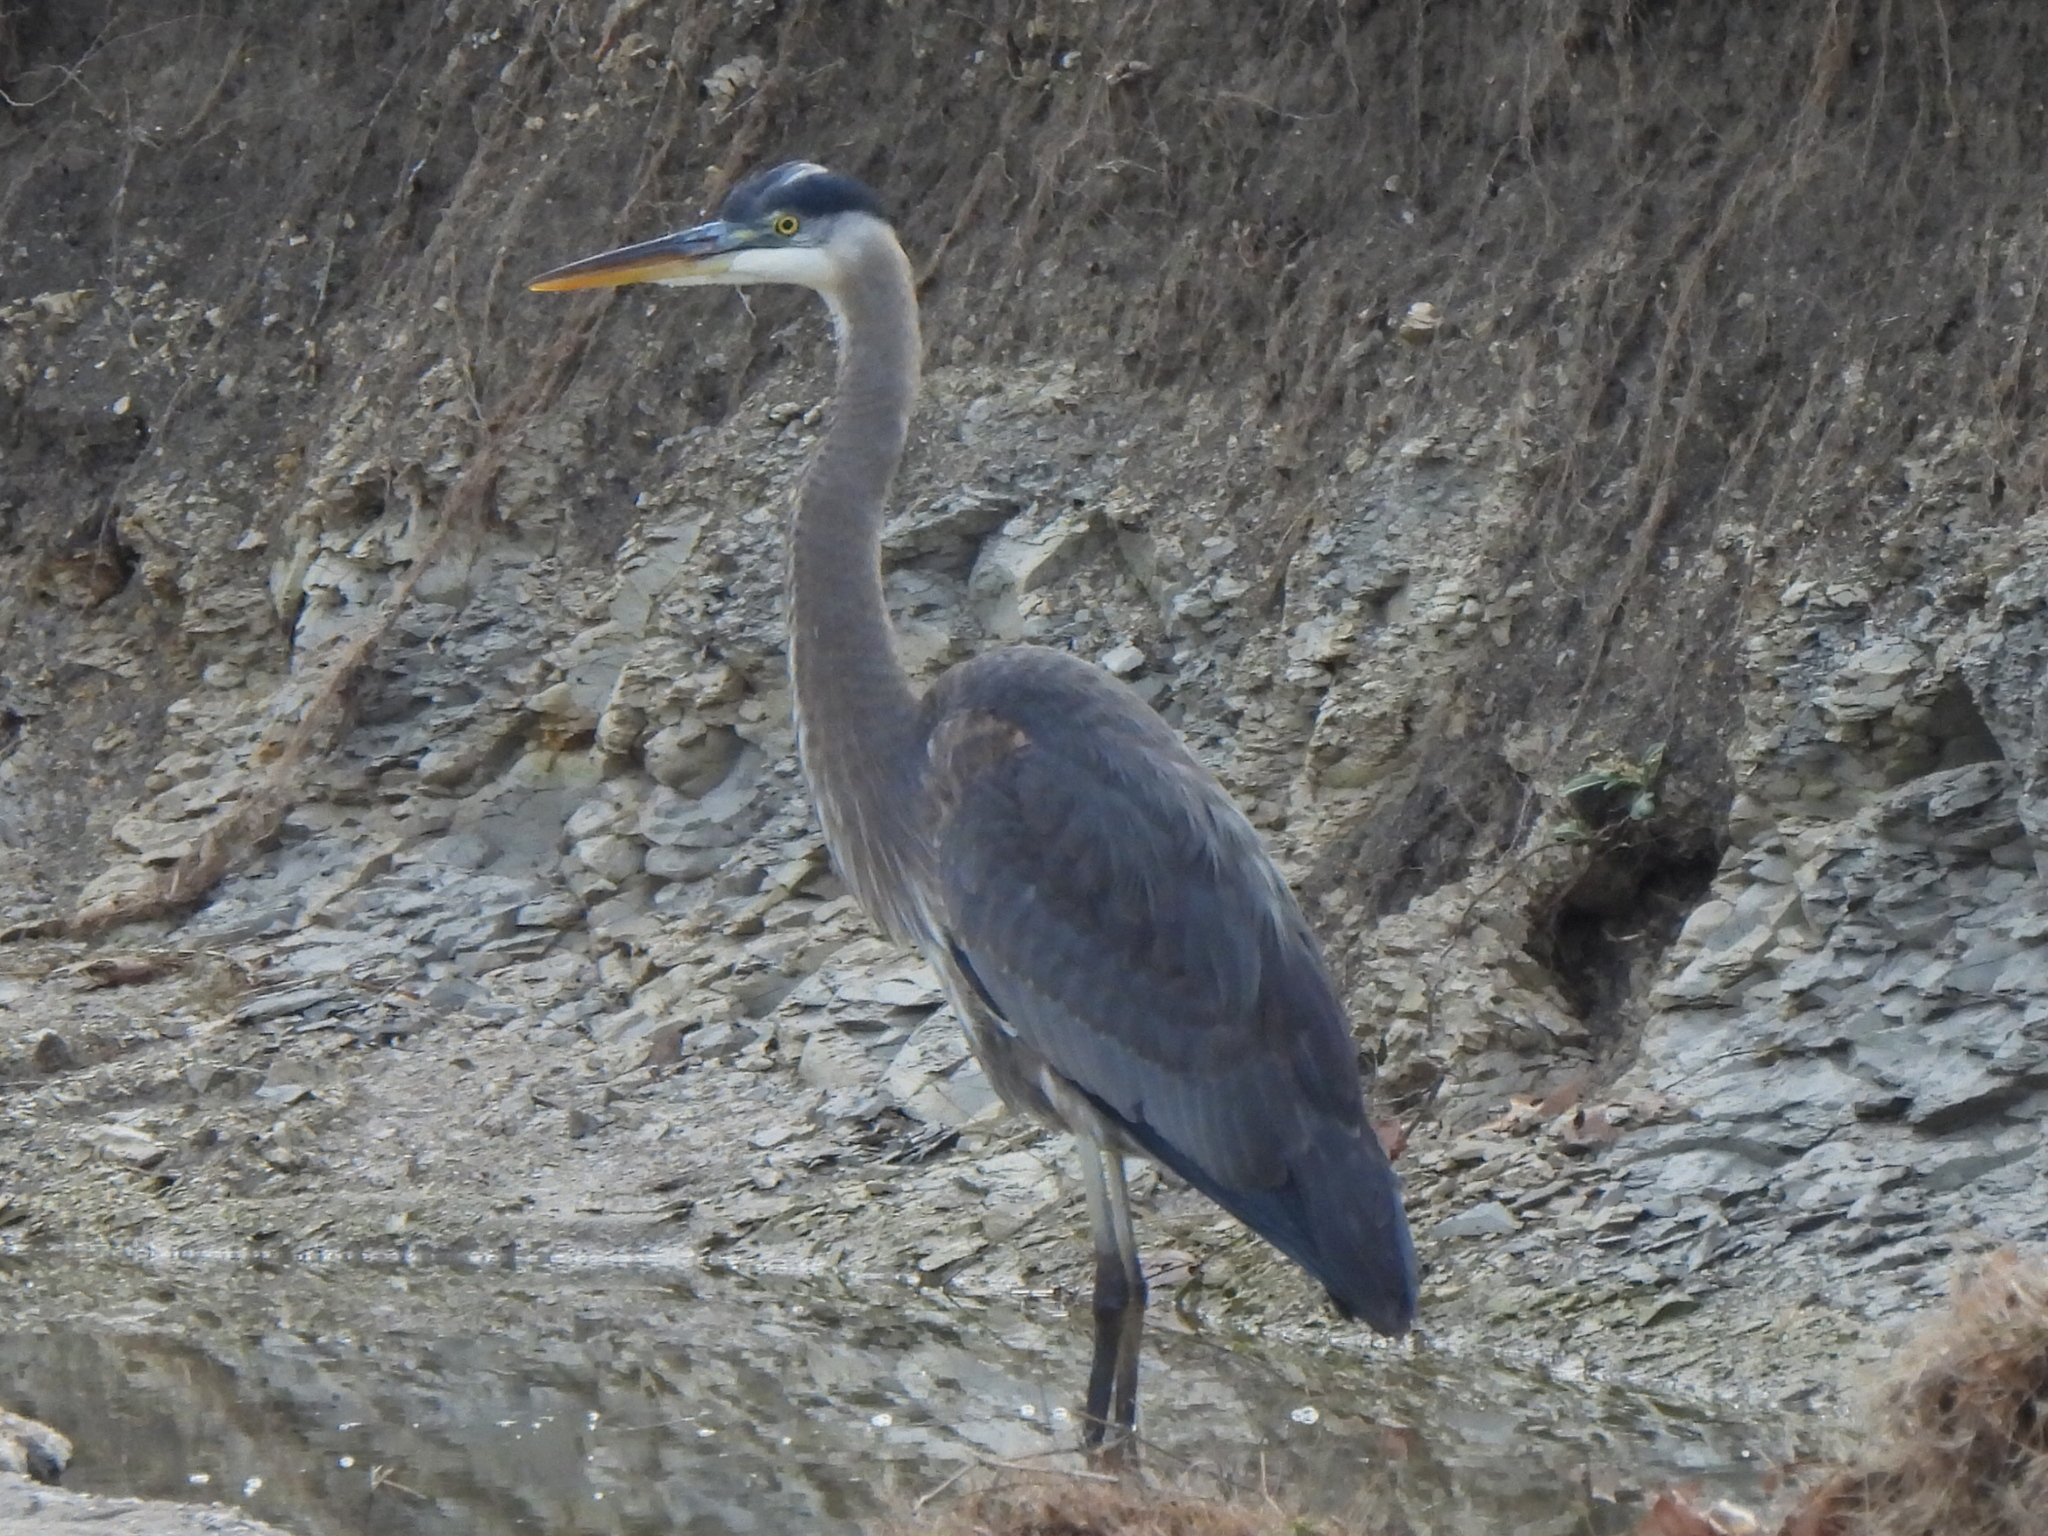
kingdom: Animalia
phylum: Chordata
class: Aves
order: Pelecaniformes
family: Ardeidae
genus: Ardea
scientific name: Ardea herodias
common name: Great blue heron
